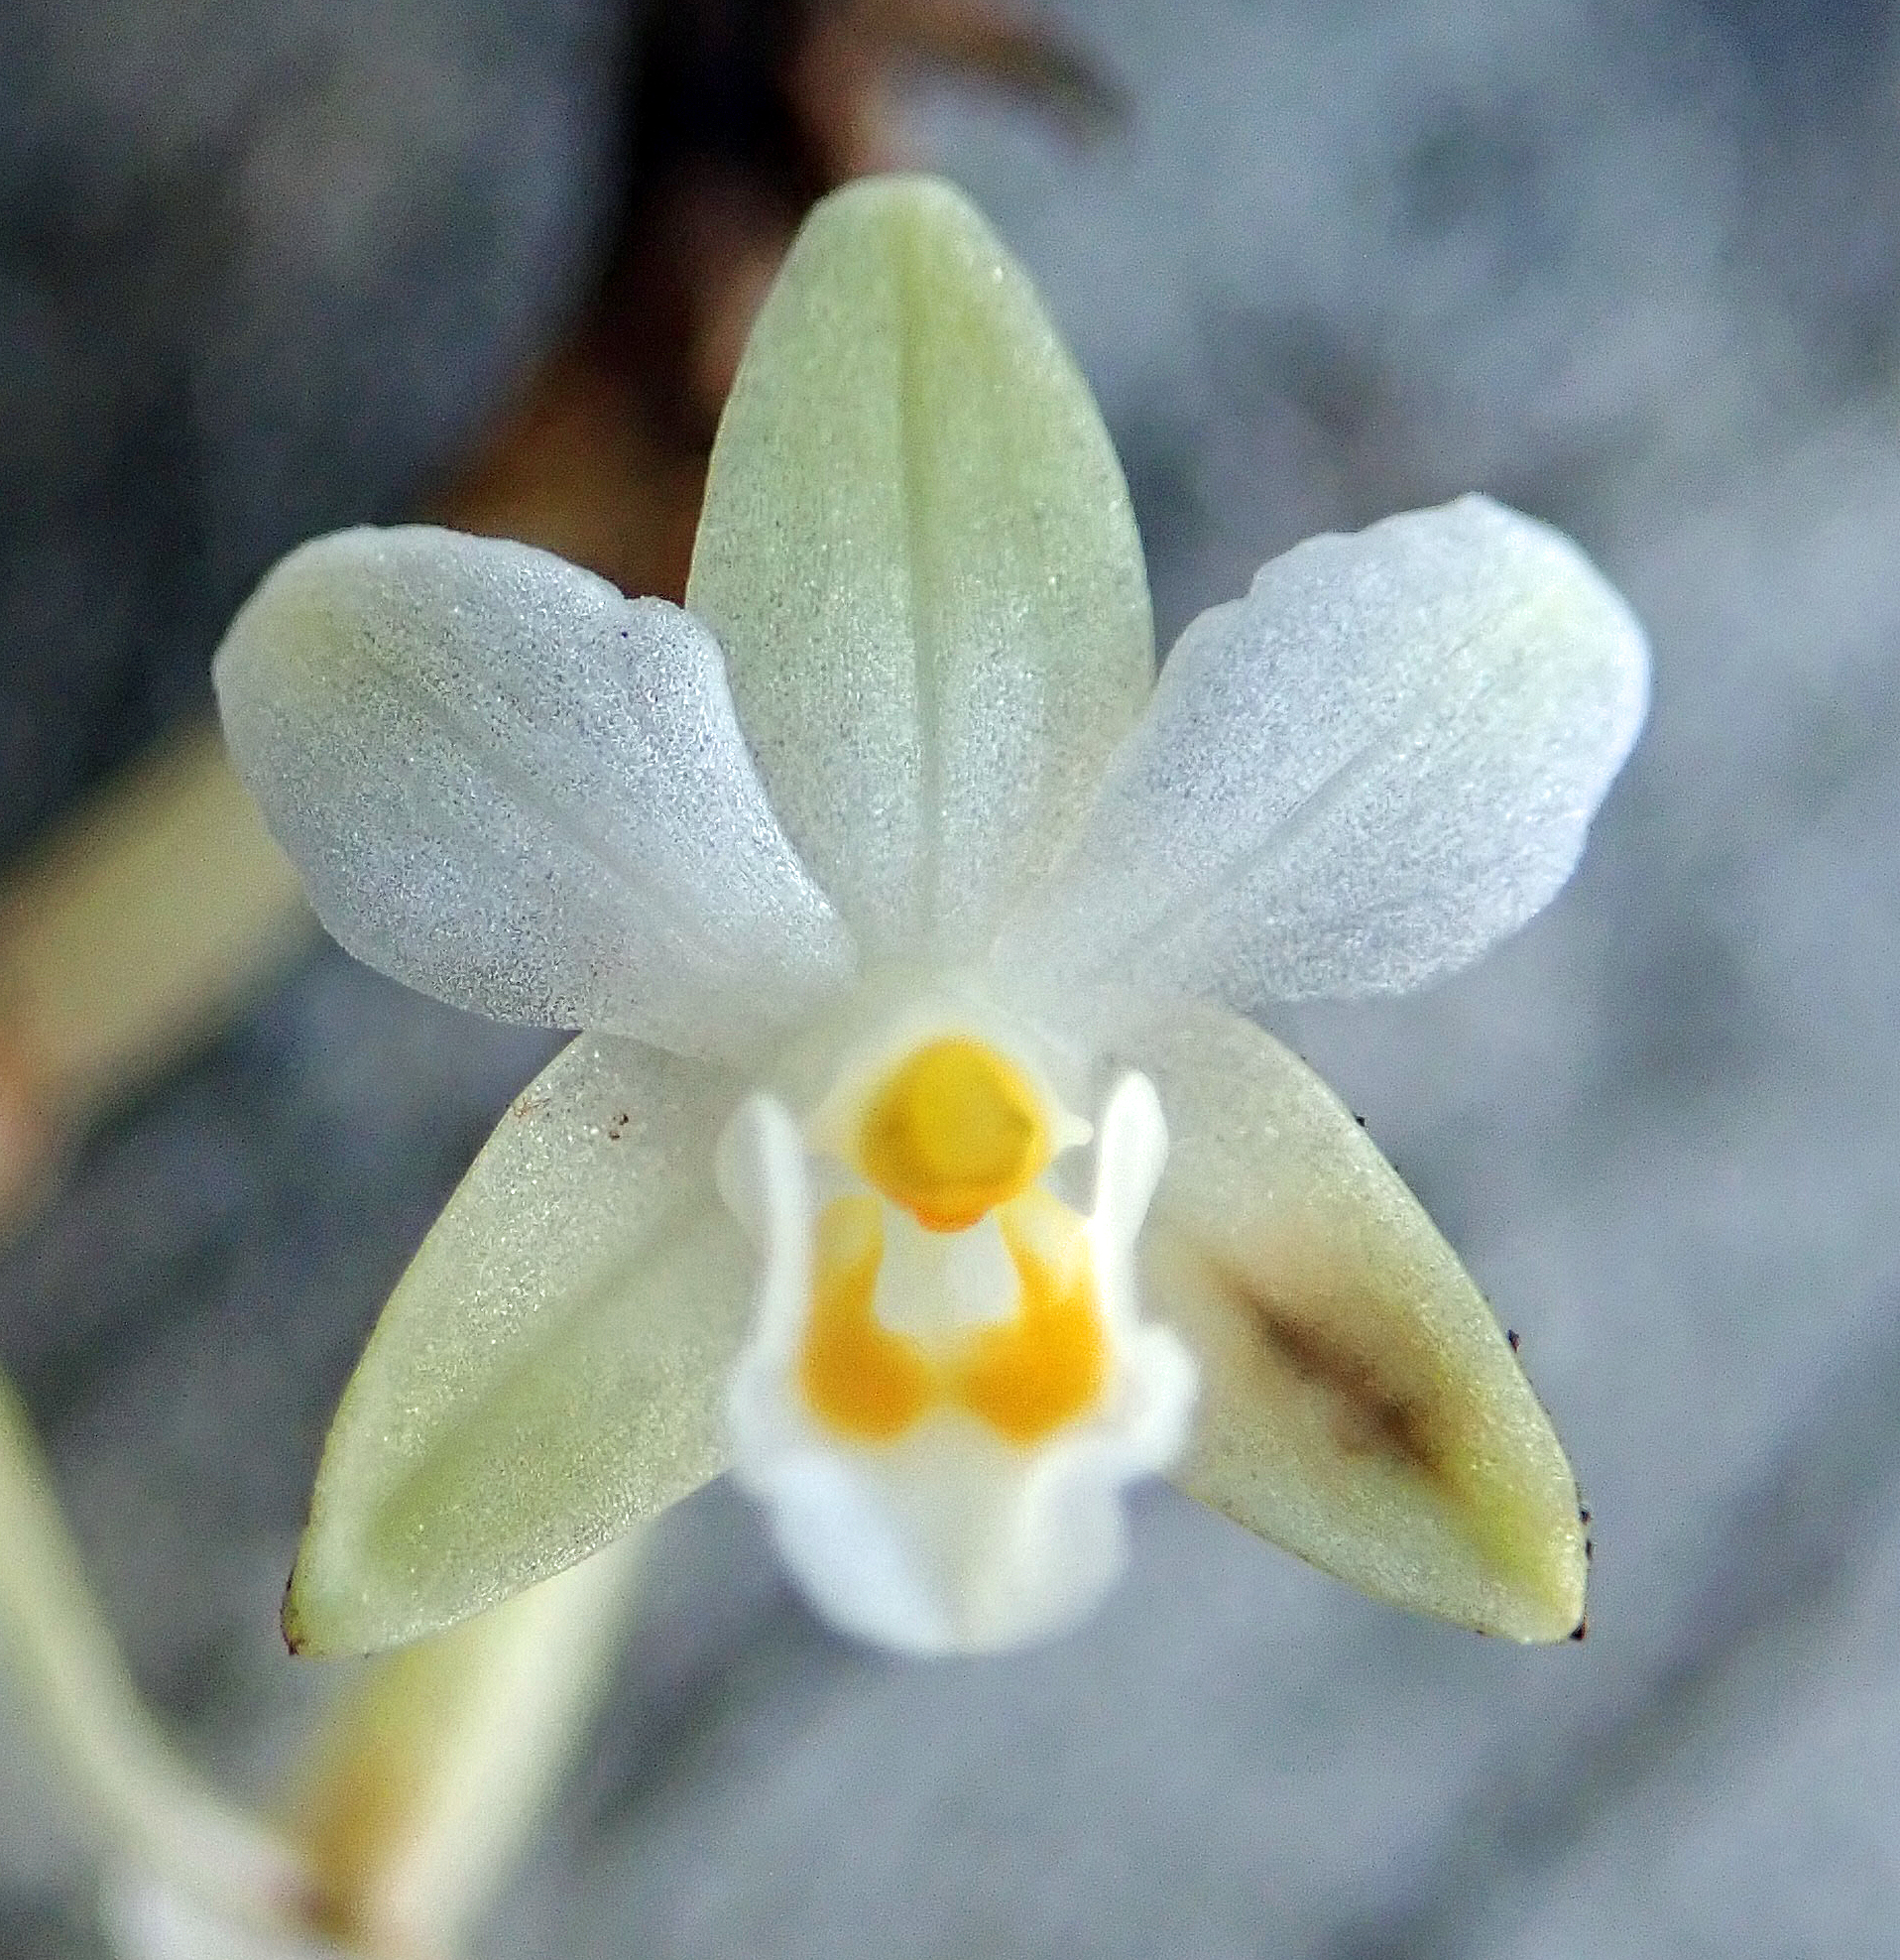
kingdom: Plantae
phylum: Tracheophyta
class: Liliopsida
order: Asparagales
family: Orchidaceae
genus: Earina
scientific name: Earina autumnalis
